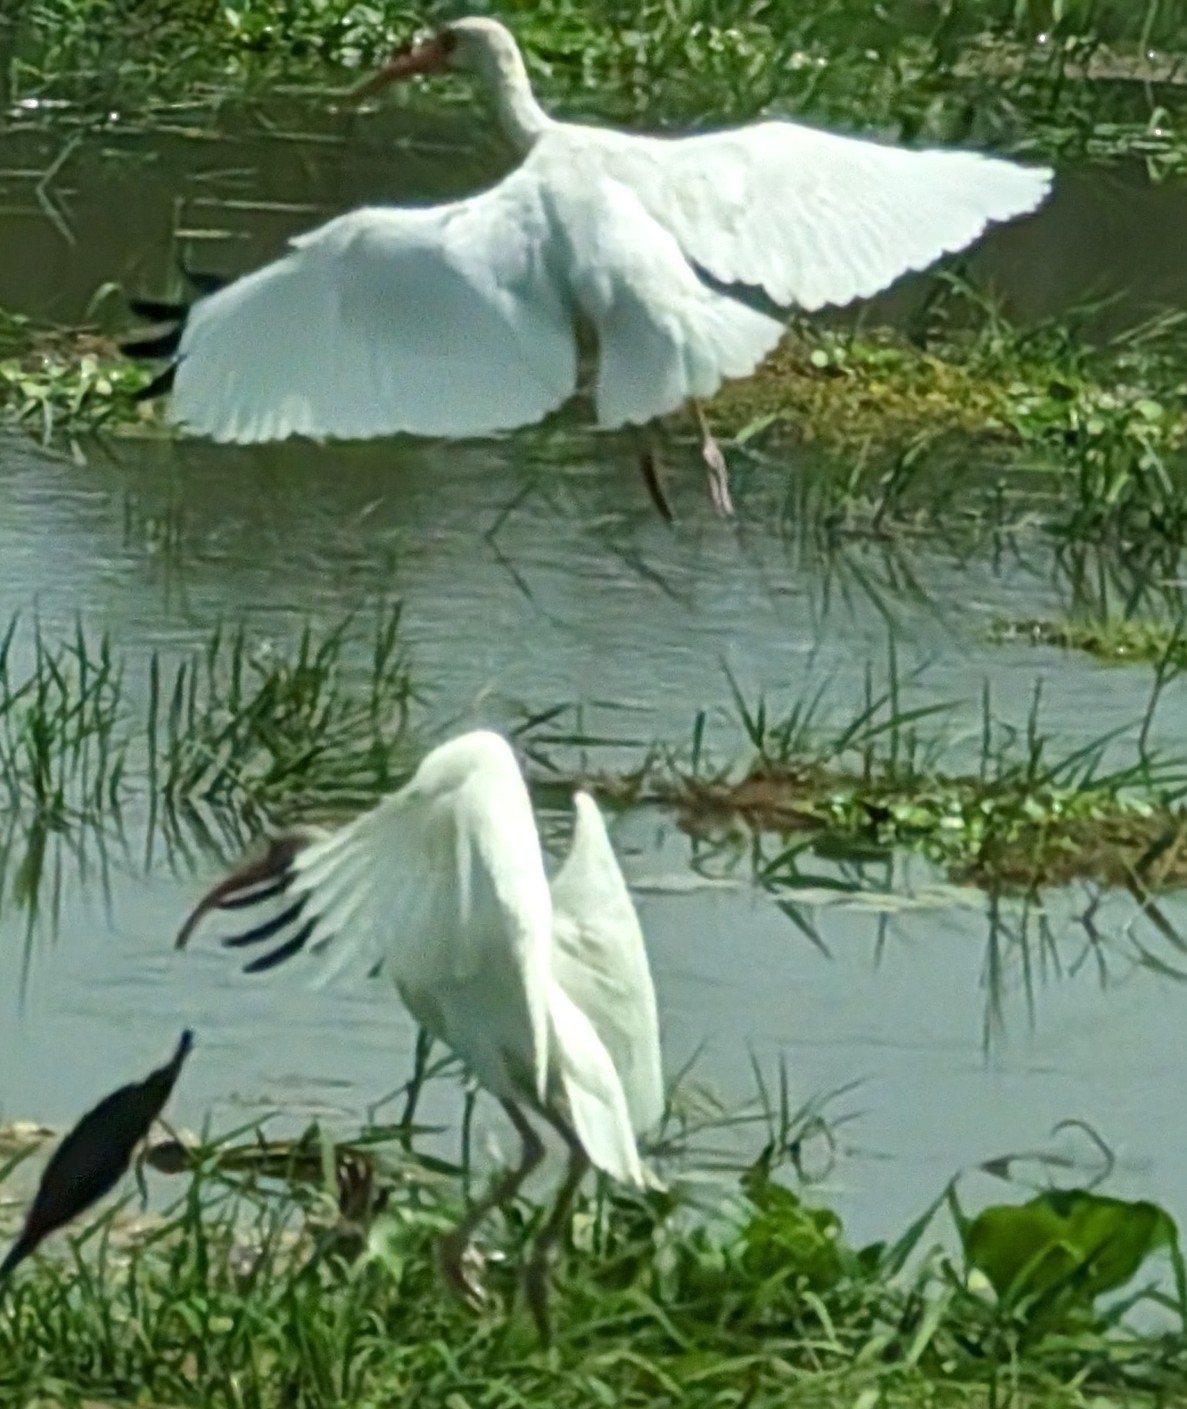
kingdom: Animalia
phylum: Chordata
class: Aves
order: Pelecaniformes
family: Threskiornithidae
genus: Eudocimus
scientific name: Eudocimus albus
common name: White ibis
